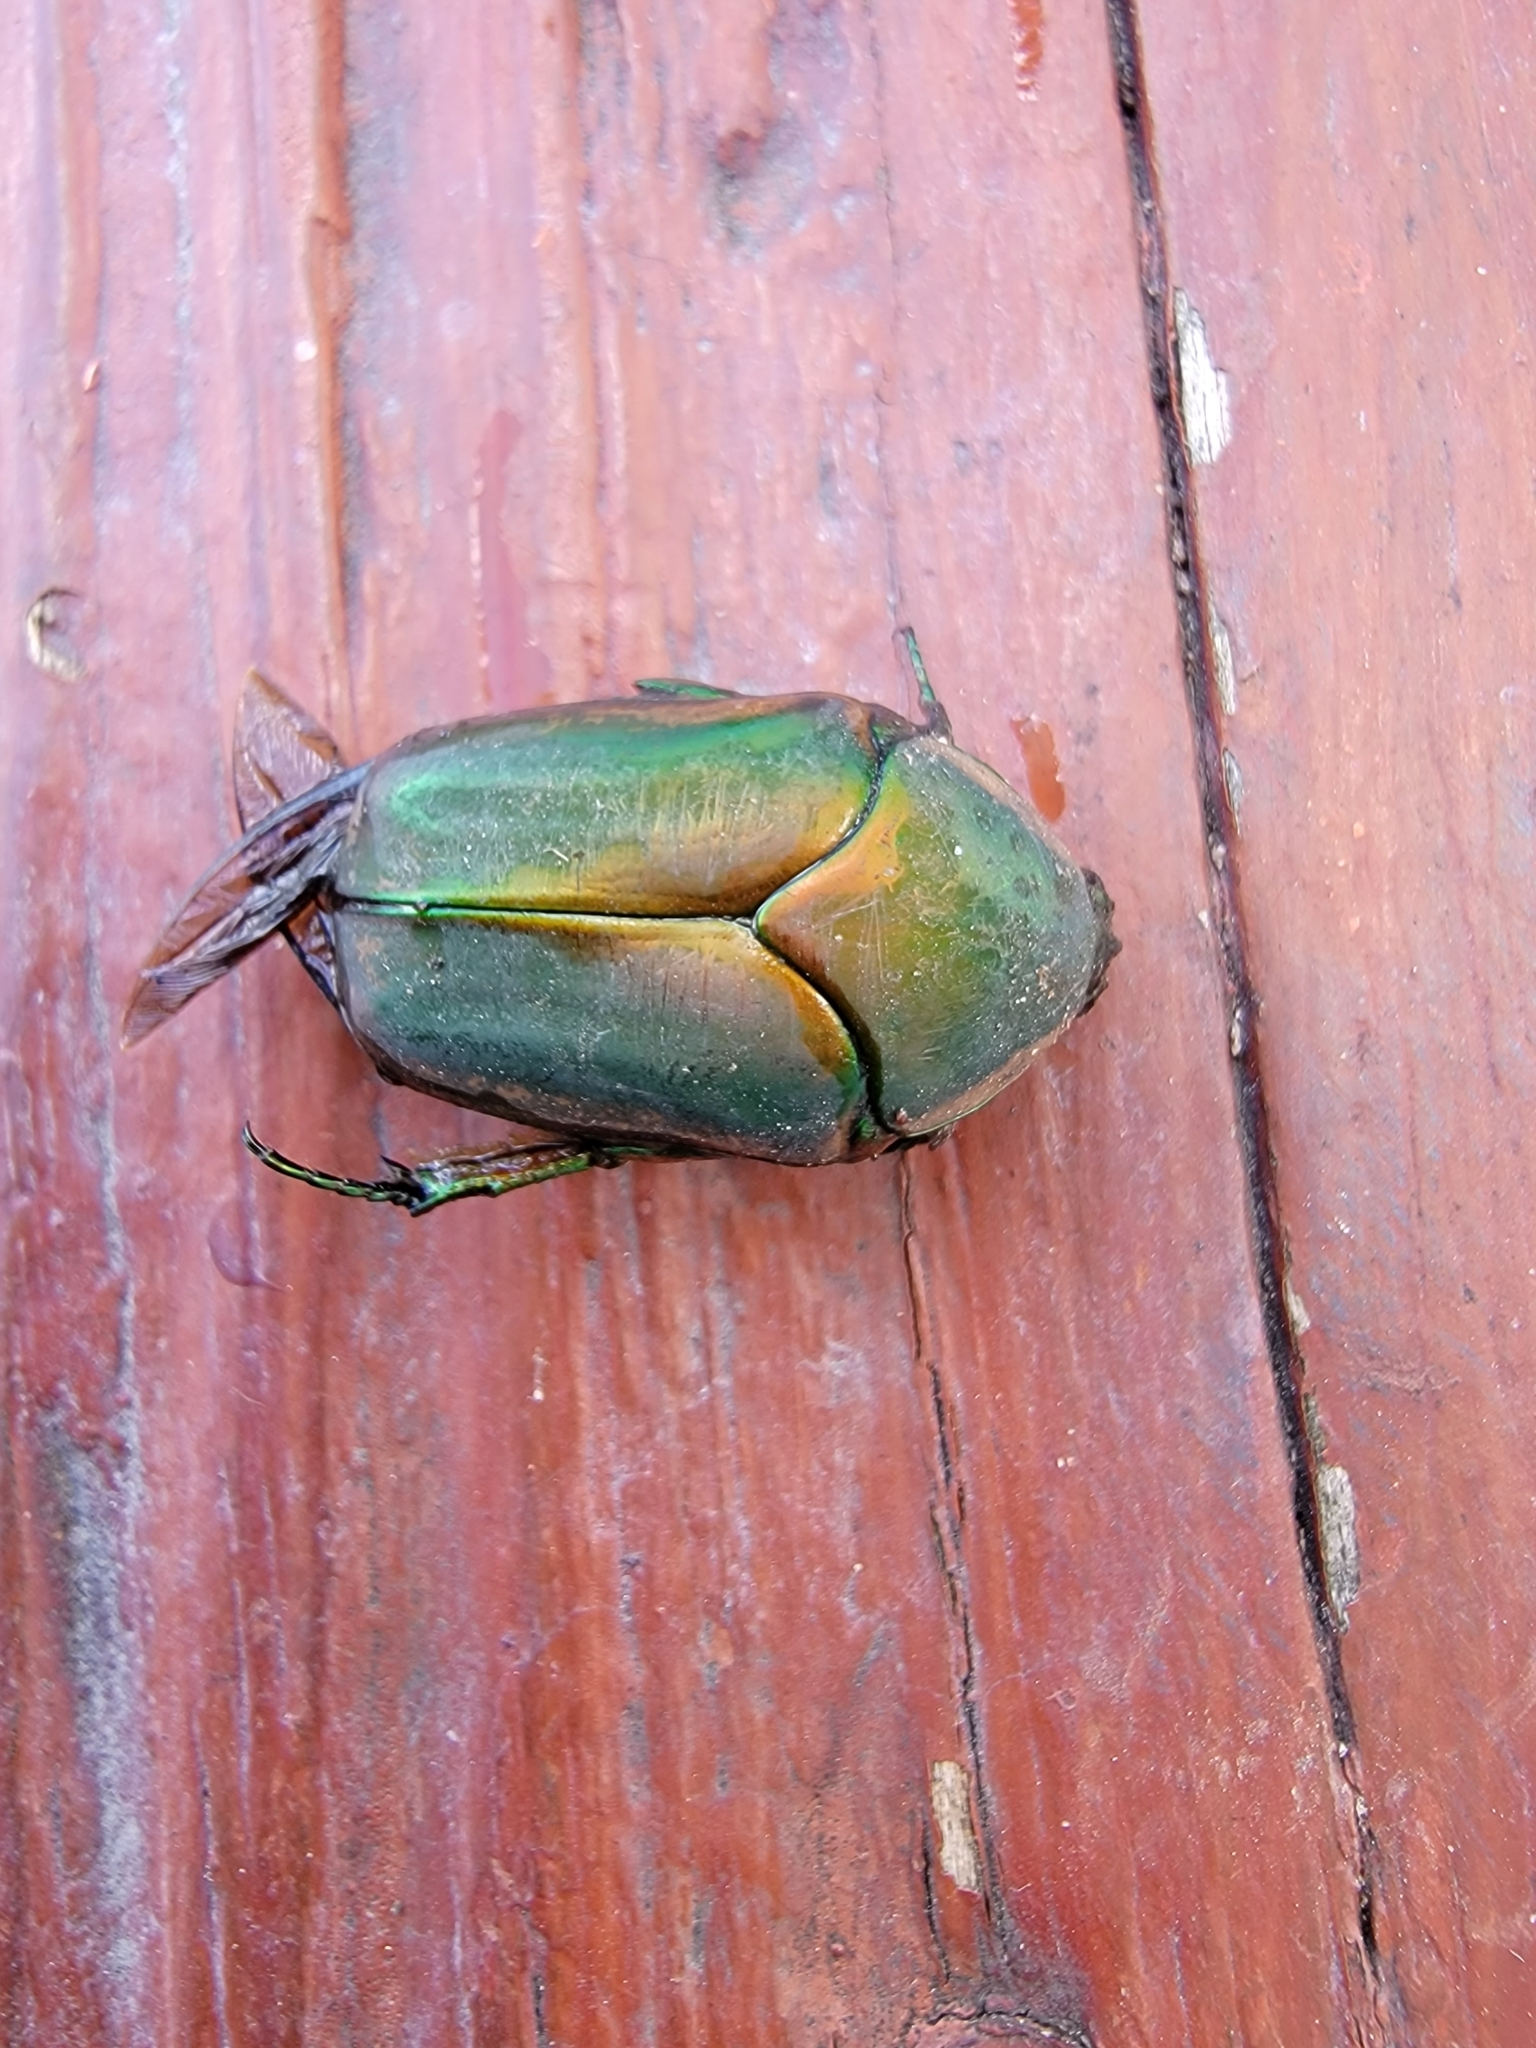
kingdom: Animalia
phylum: Arthropoda
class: Insecta
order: Coleoptera
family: Scarabaeidae
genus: Cotinis
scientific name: Cotinis nitida
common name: Common green june beetle
